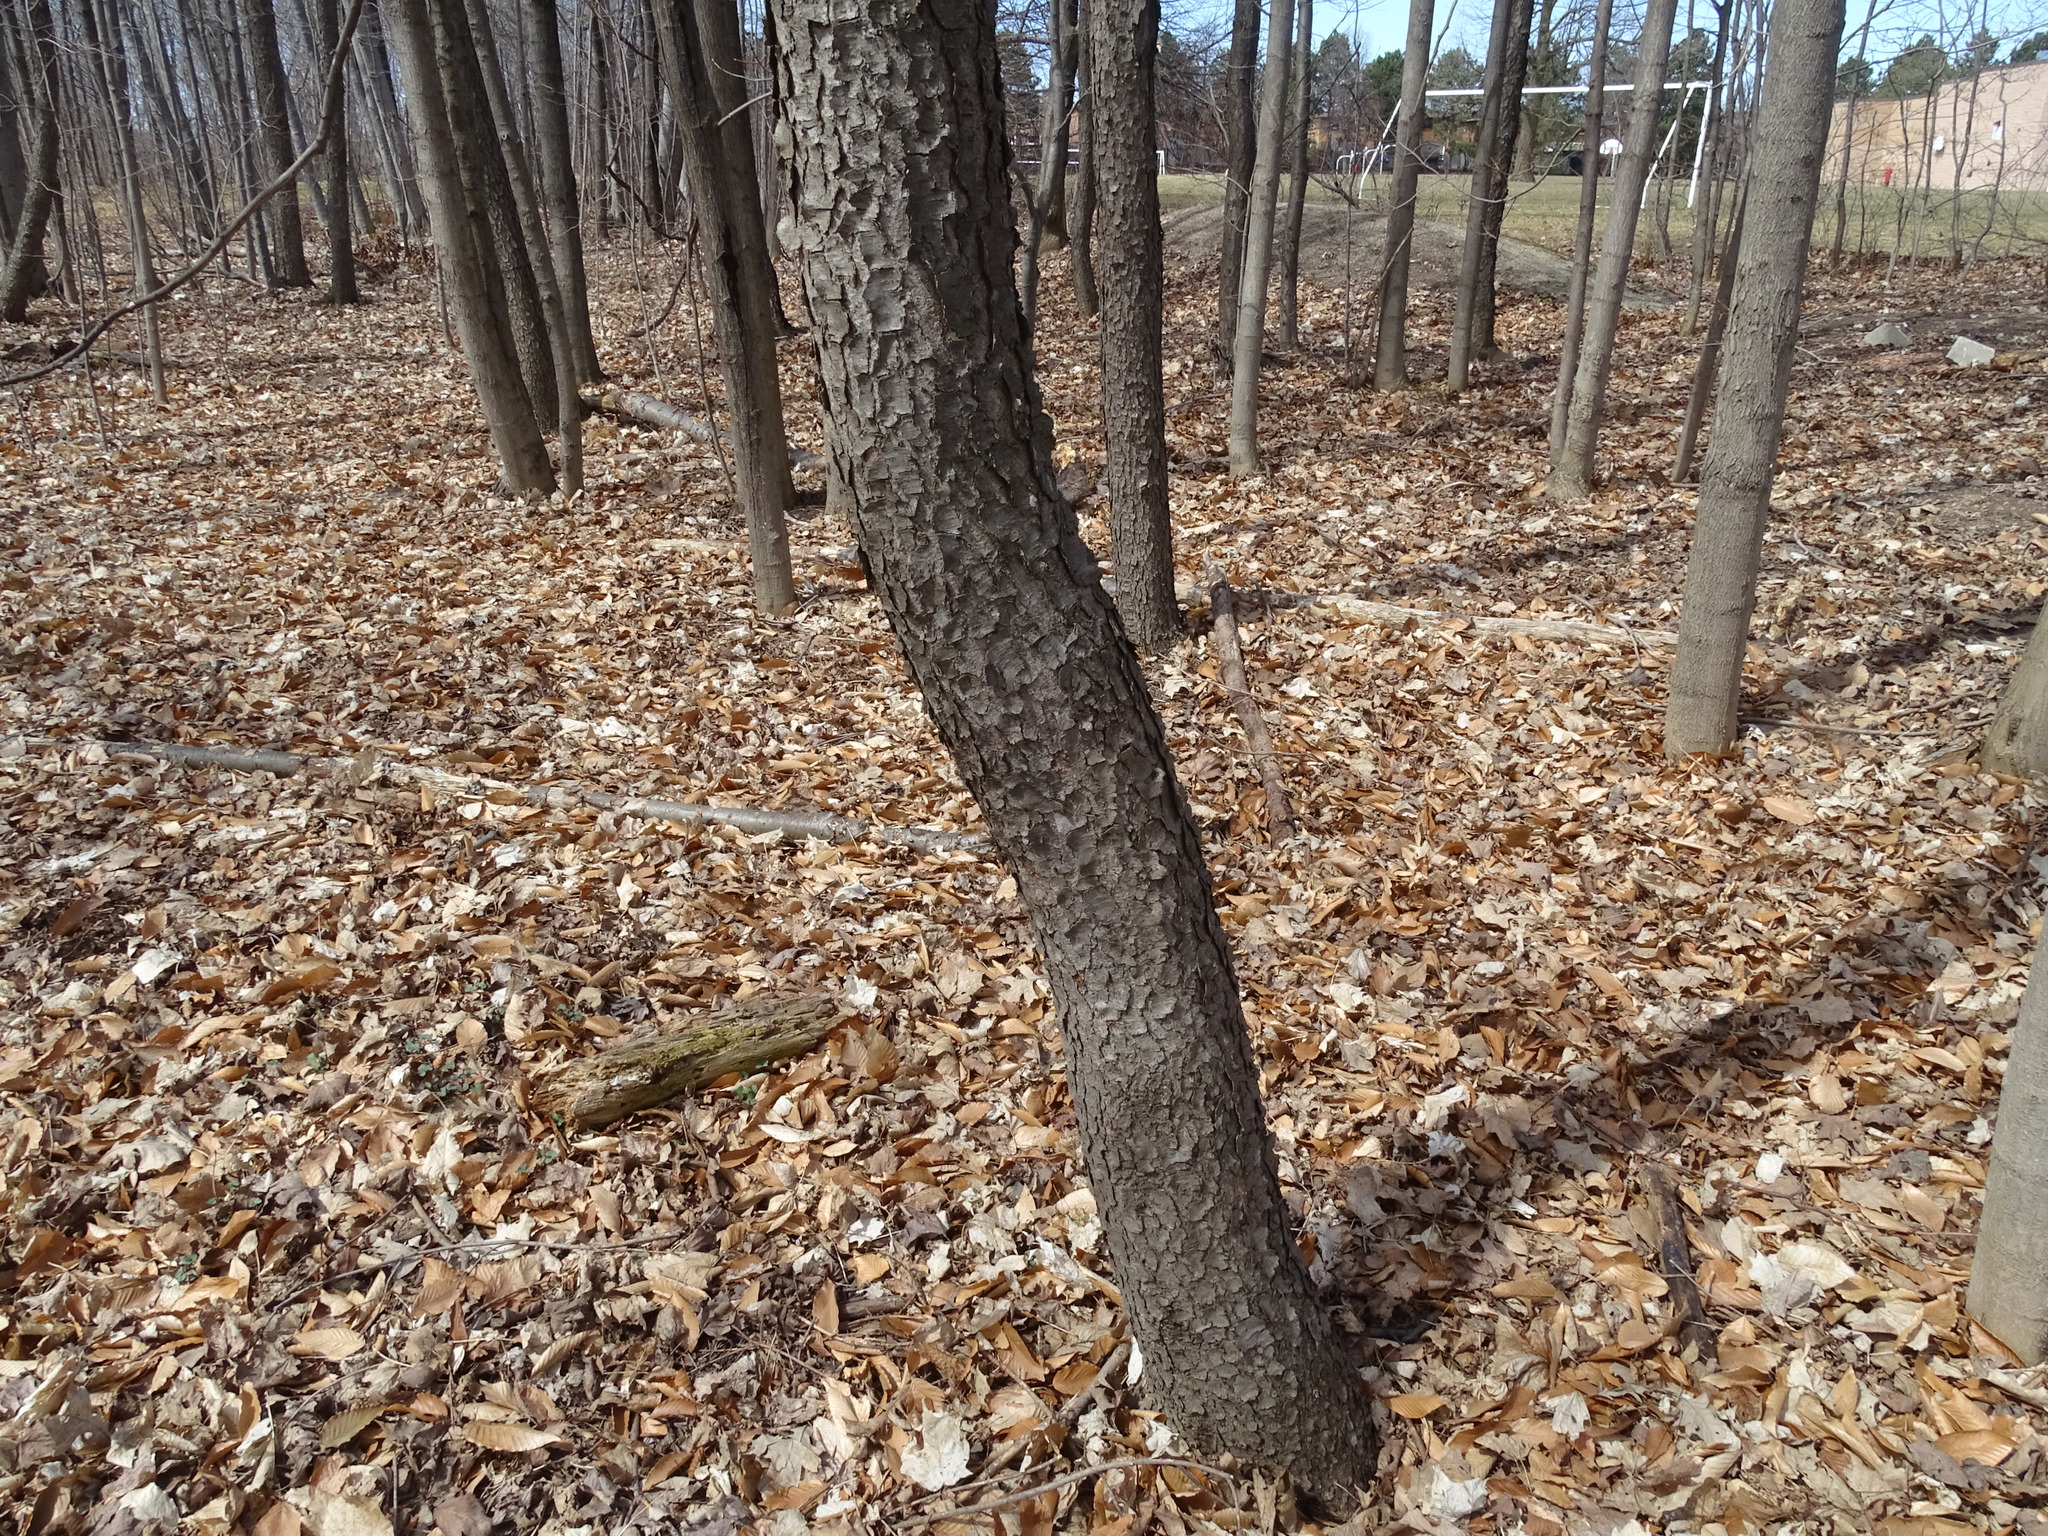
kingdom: Plantae
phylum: Tracheophyta
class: Magnoliopsida
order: Rosales
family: Rosaceae
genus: Prunus
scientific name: Prunus serotina
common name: Black cherry
